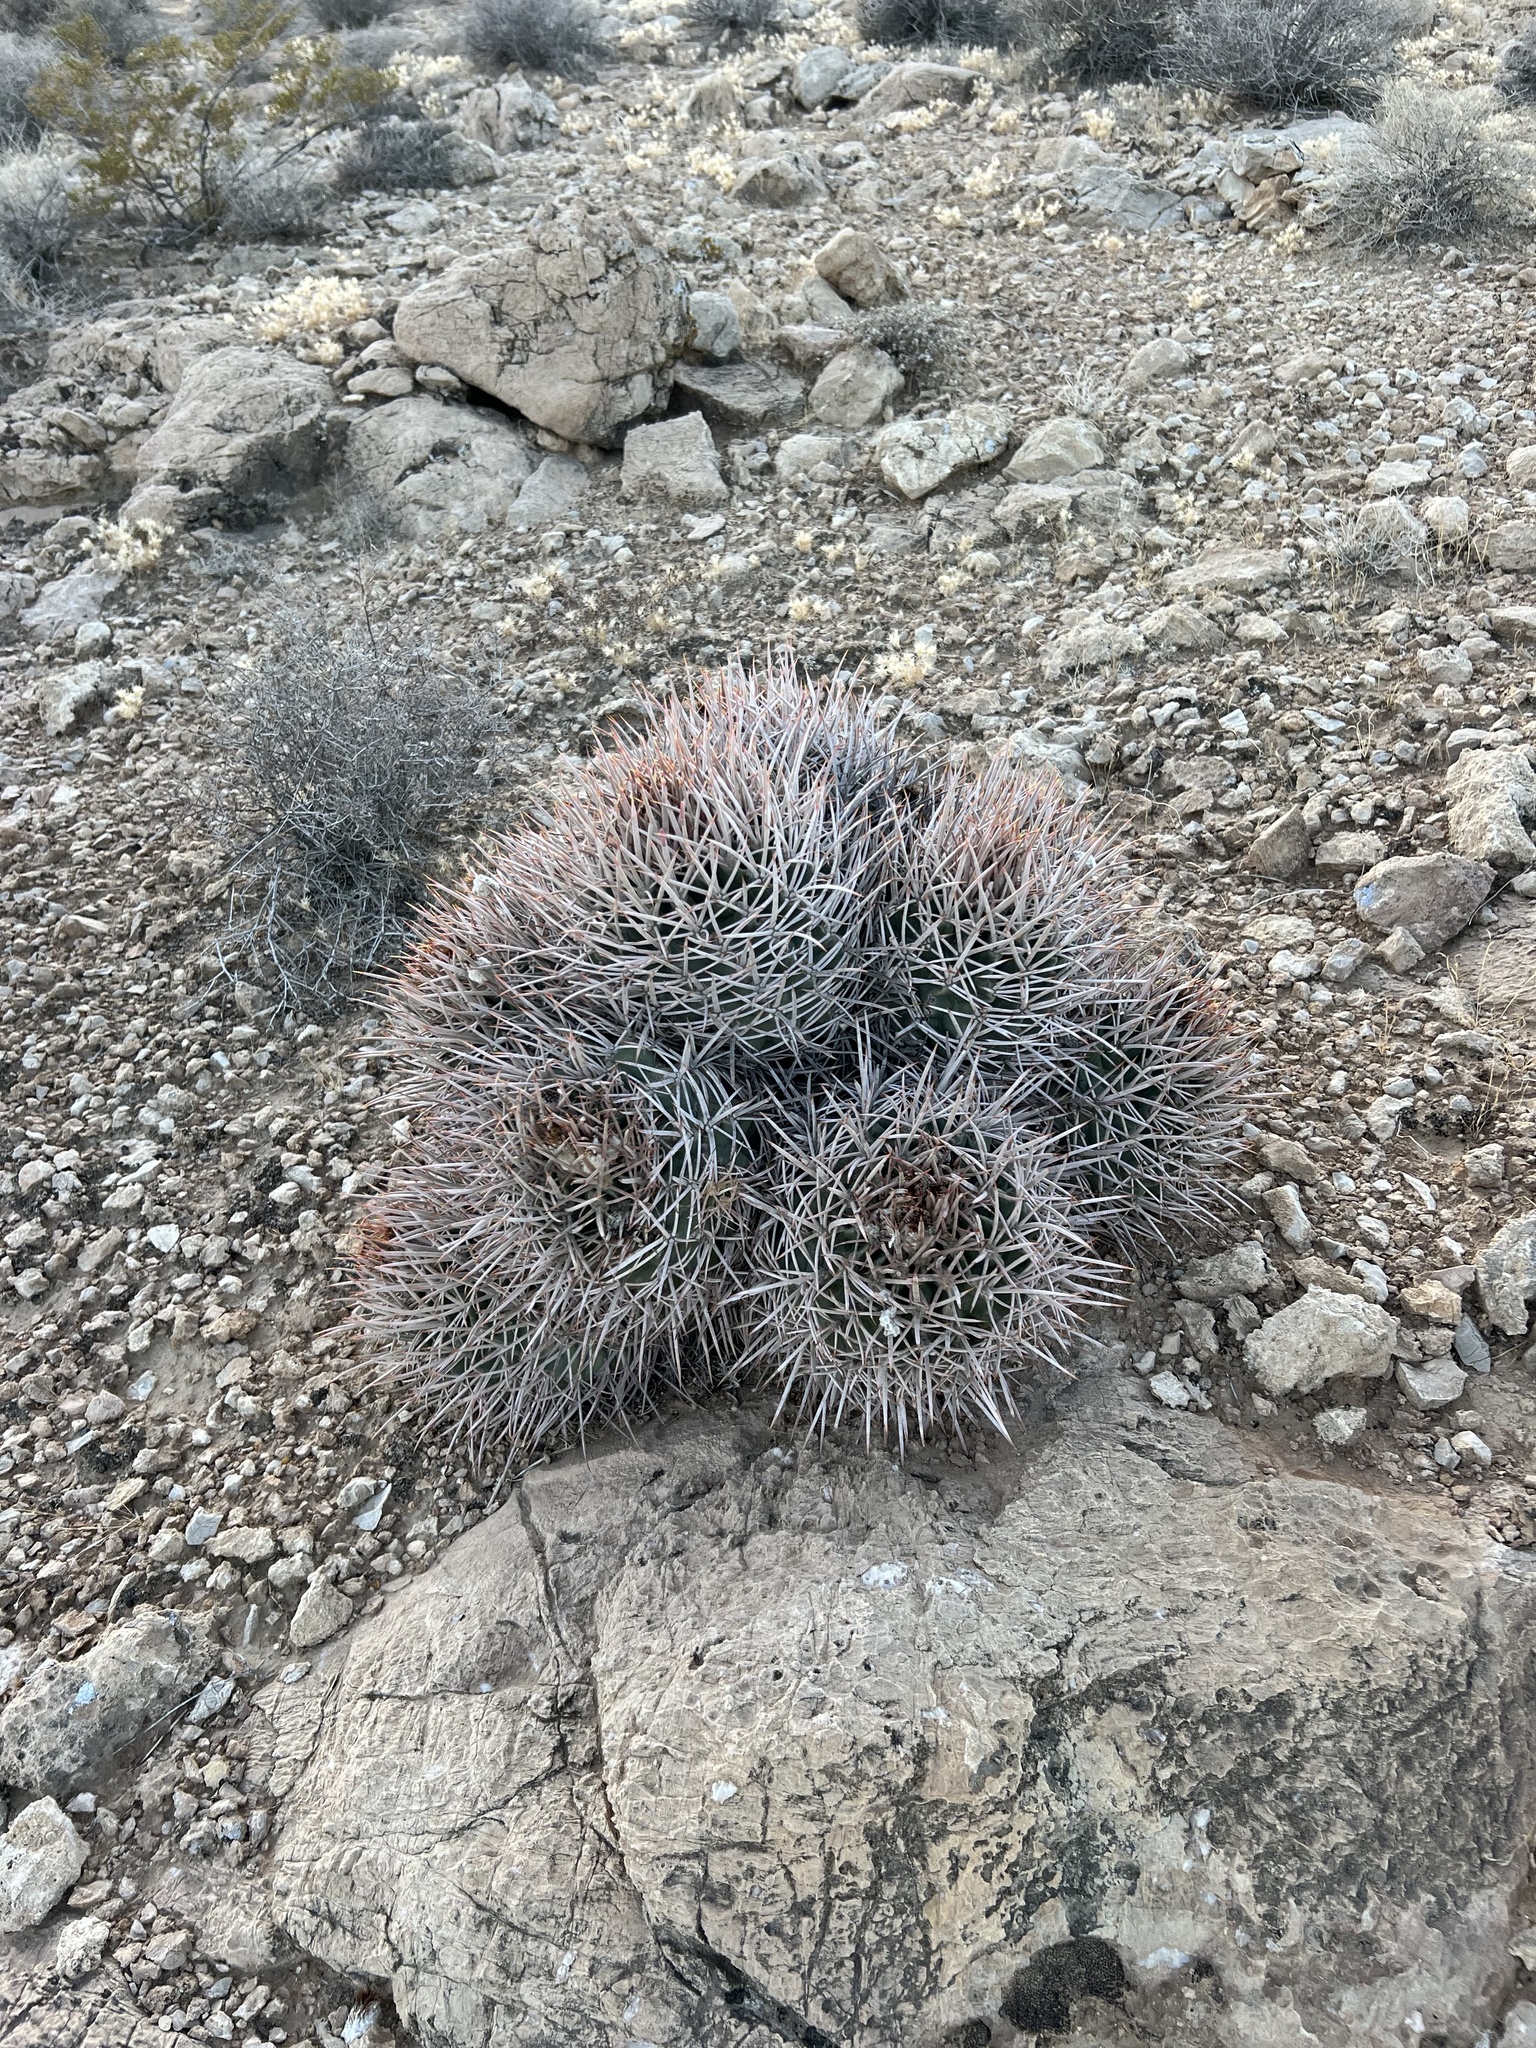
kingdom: Plantae
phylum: Tracheophyta
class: Magnoliopsida
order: Caryophyllales
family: Cactaceae
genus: Echinocactus
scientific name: Echinocactus polycephalus
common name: Cottontop cactus
